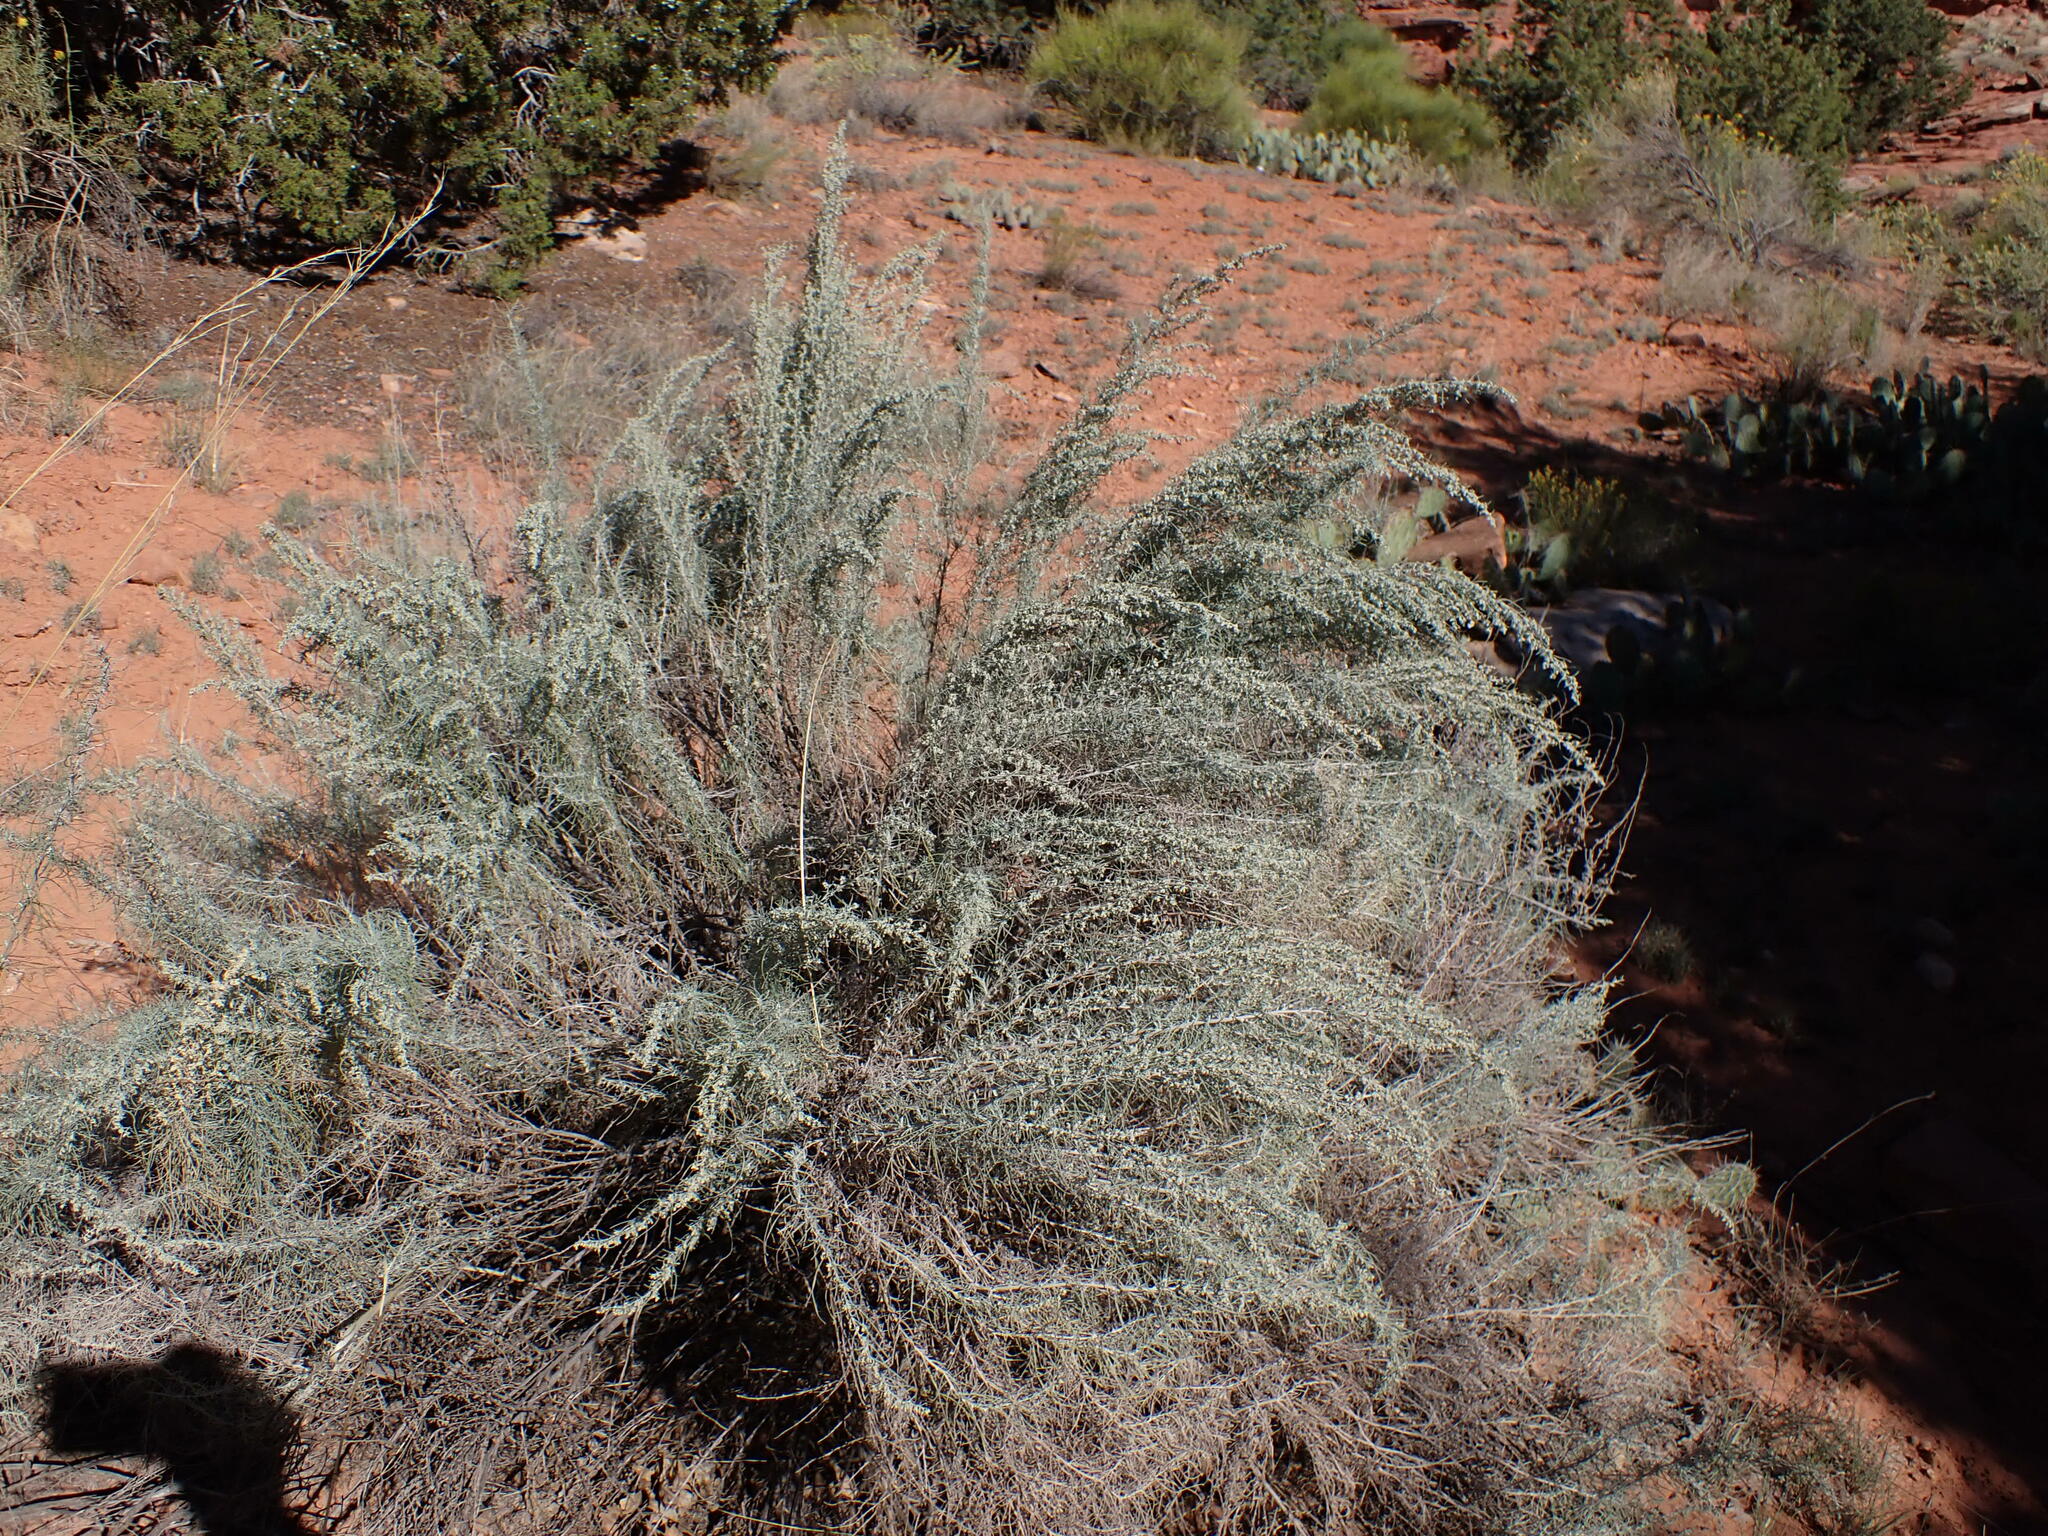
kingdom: Plantae
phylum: Tracheophyta
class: Magnoliopsida
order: Asterales
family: Asteraceae
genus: Artemisia
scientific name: Artemisia filifolia
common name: Sand-sage
